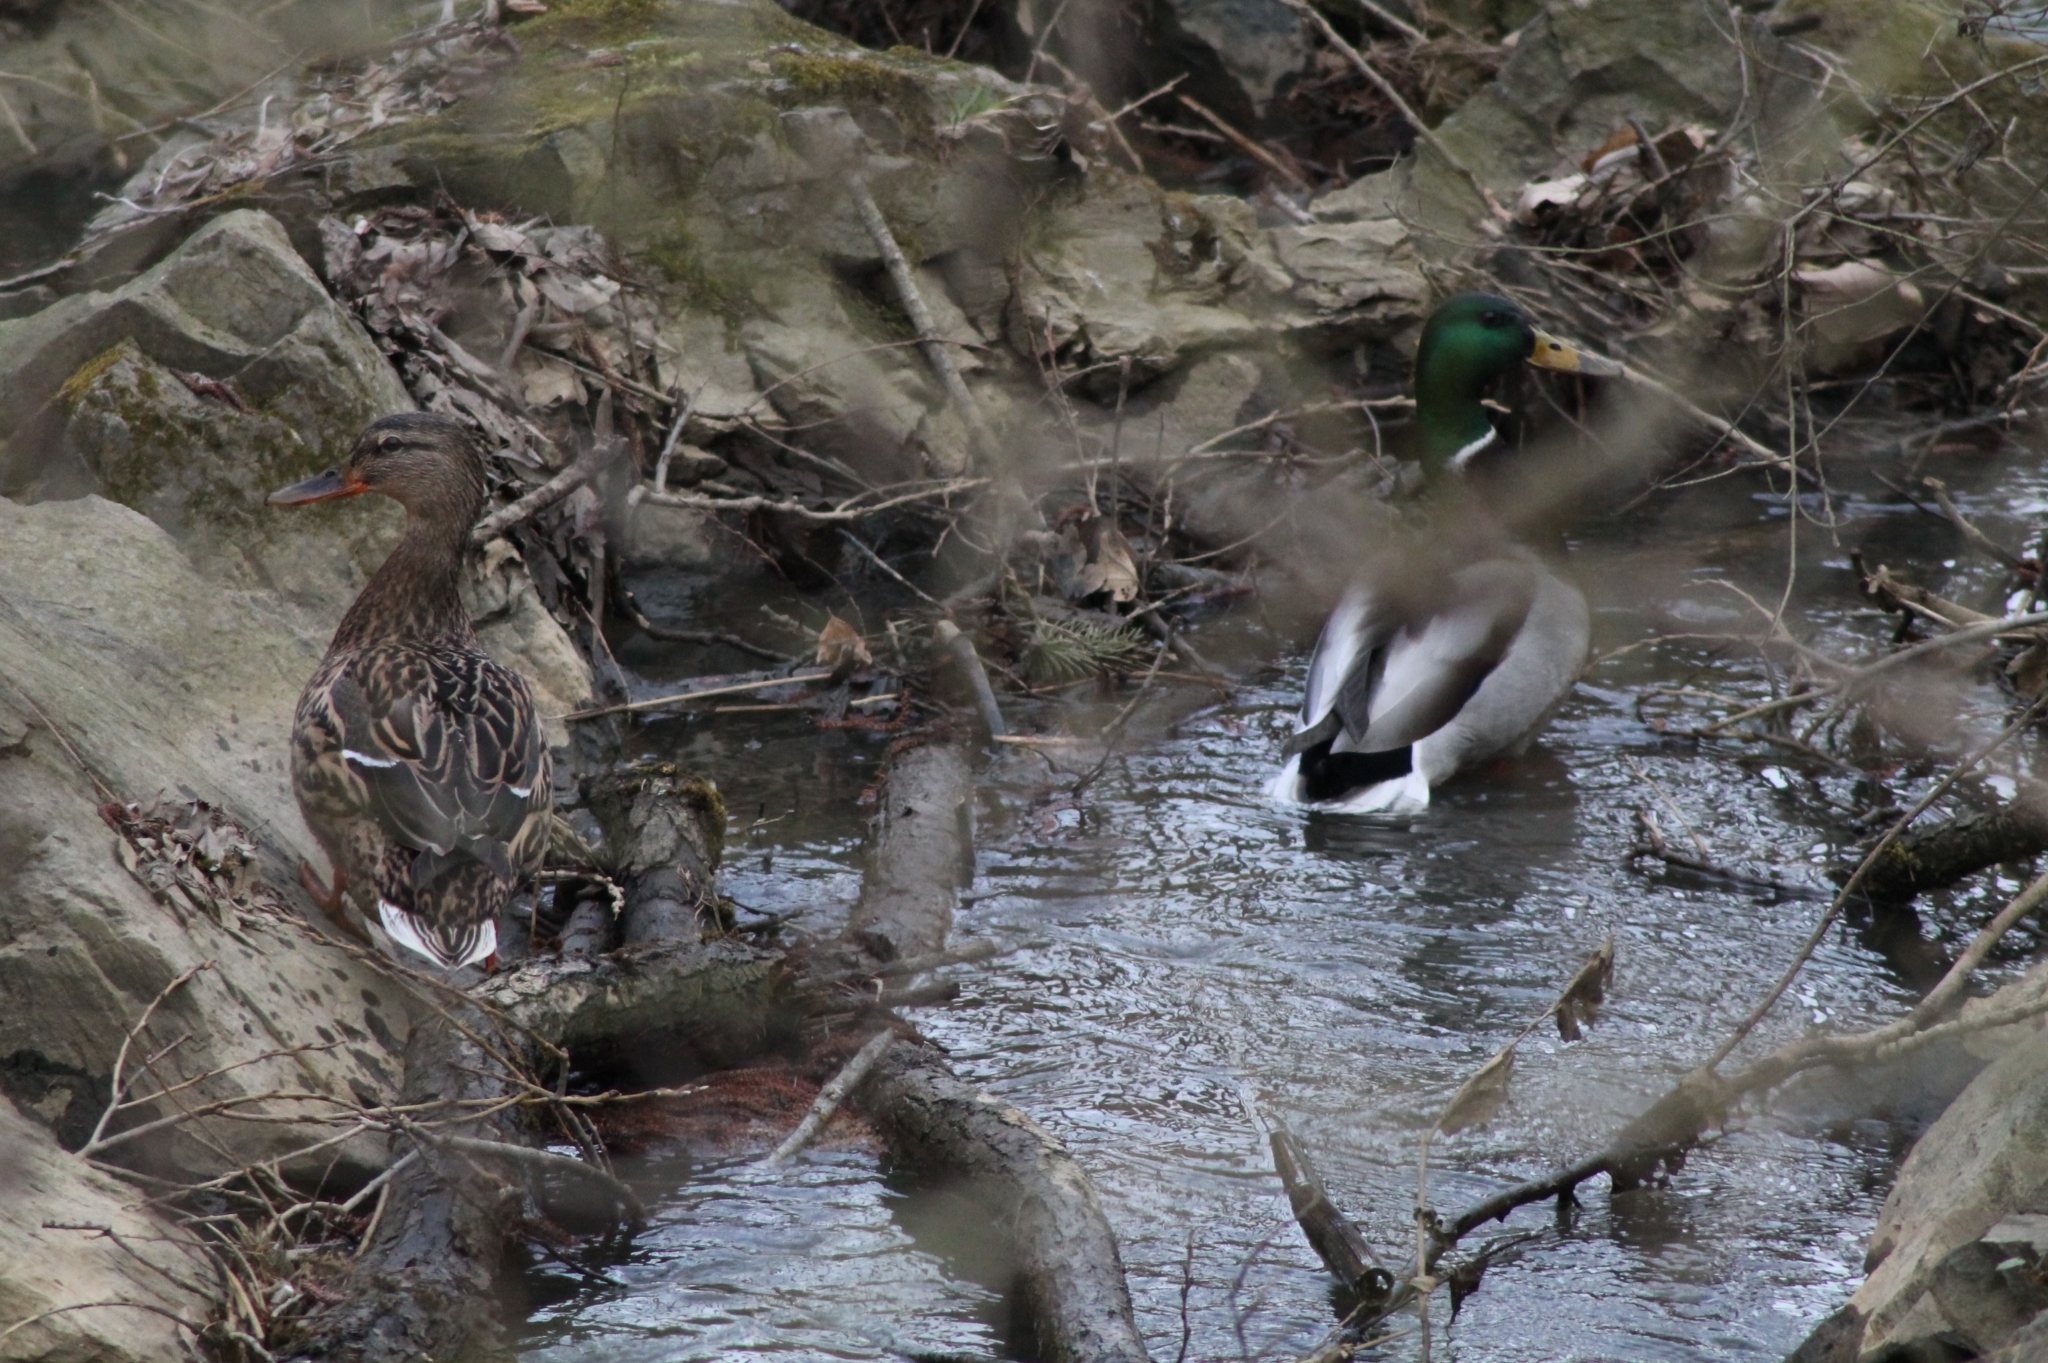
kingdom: Animalia
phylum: Chordata
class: Aves
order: Anseriformes
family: Anatidae
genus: Anas
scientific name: Anas platyrhynchos
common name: Mallard
